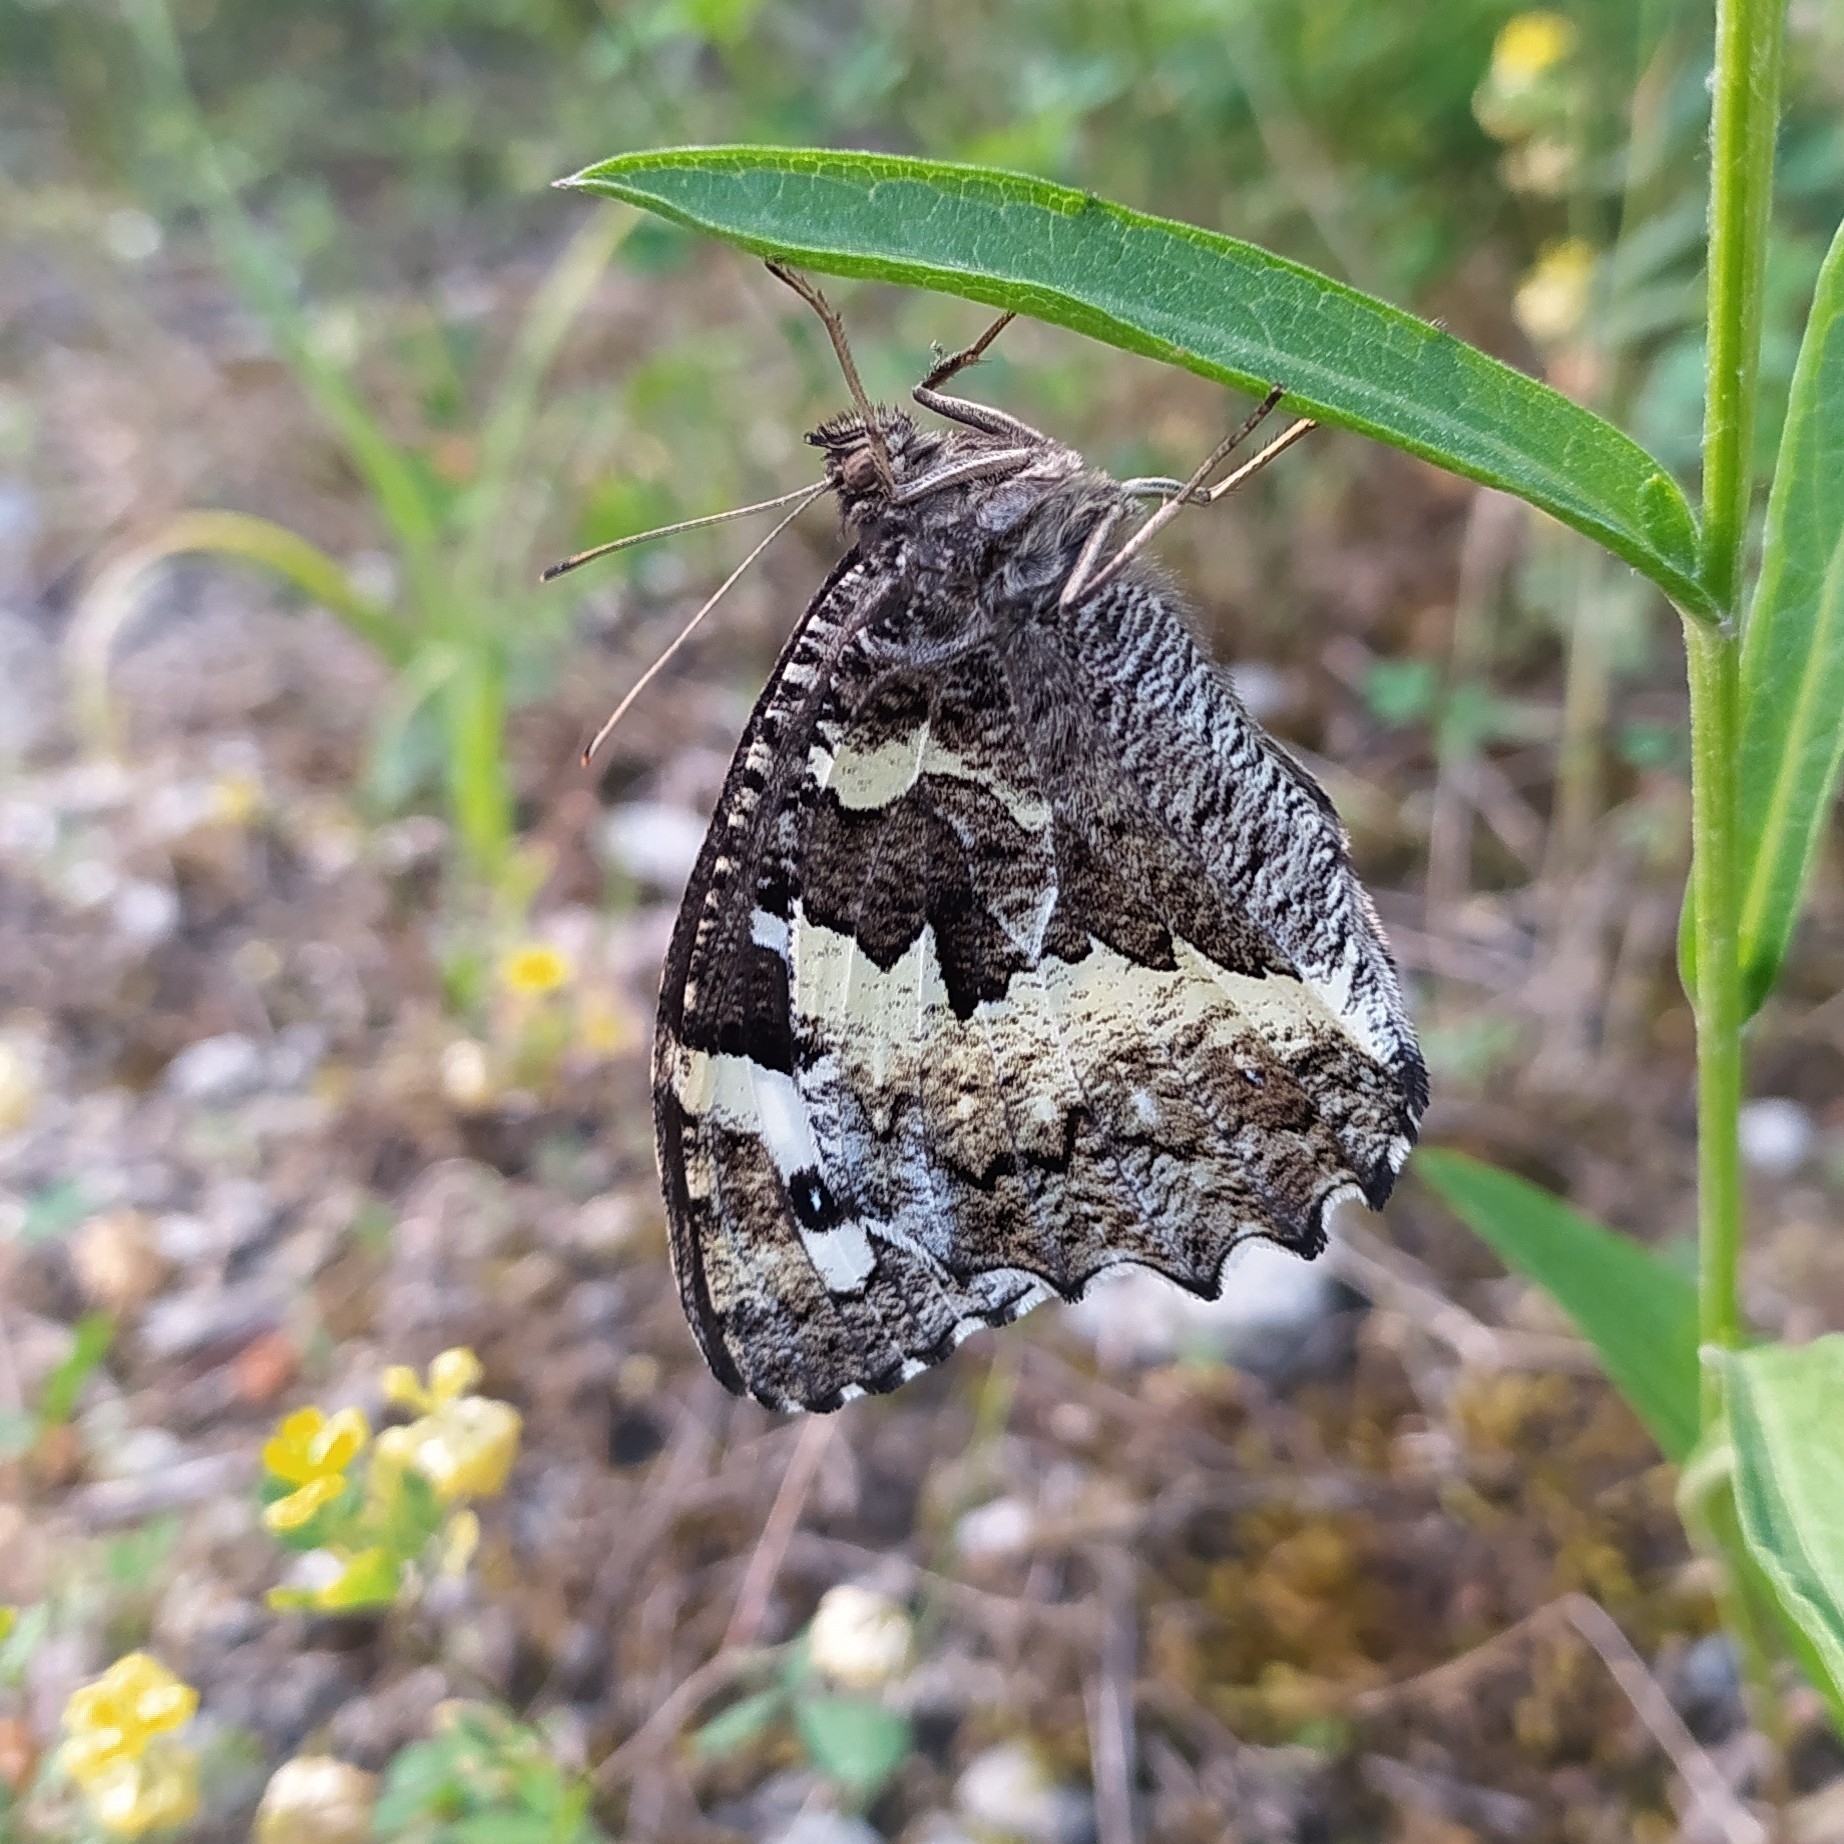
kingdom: Animalia
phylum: Arthropoda
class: Insecta
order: Lepidoptera
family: Lycaenidae
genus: Loweia
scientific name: Loweia tityrus
